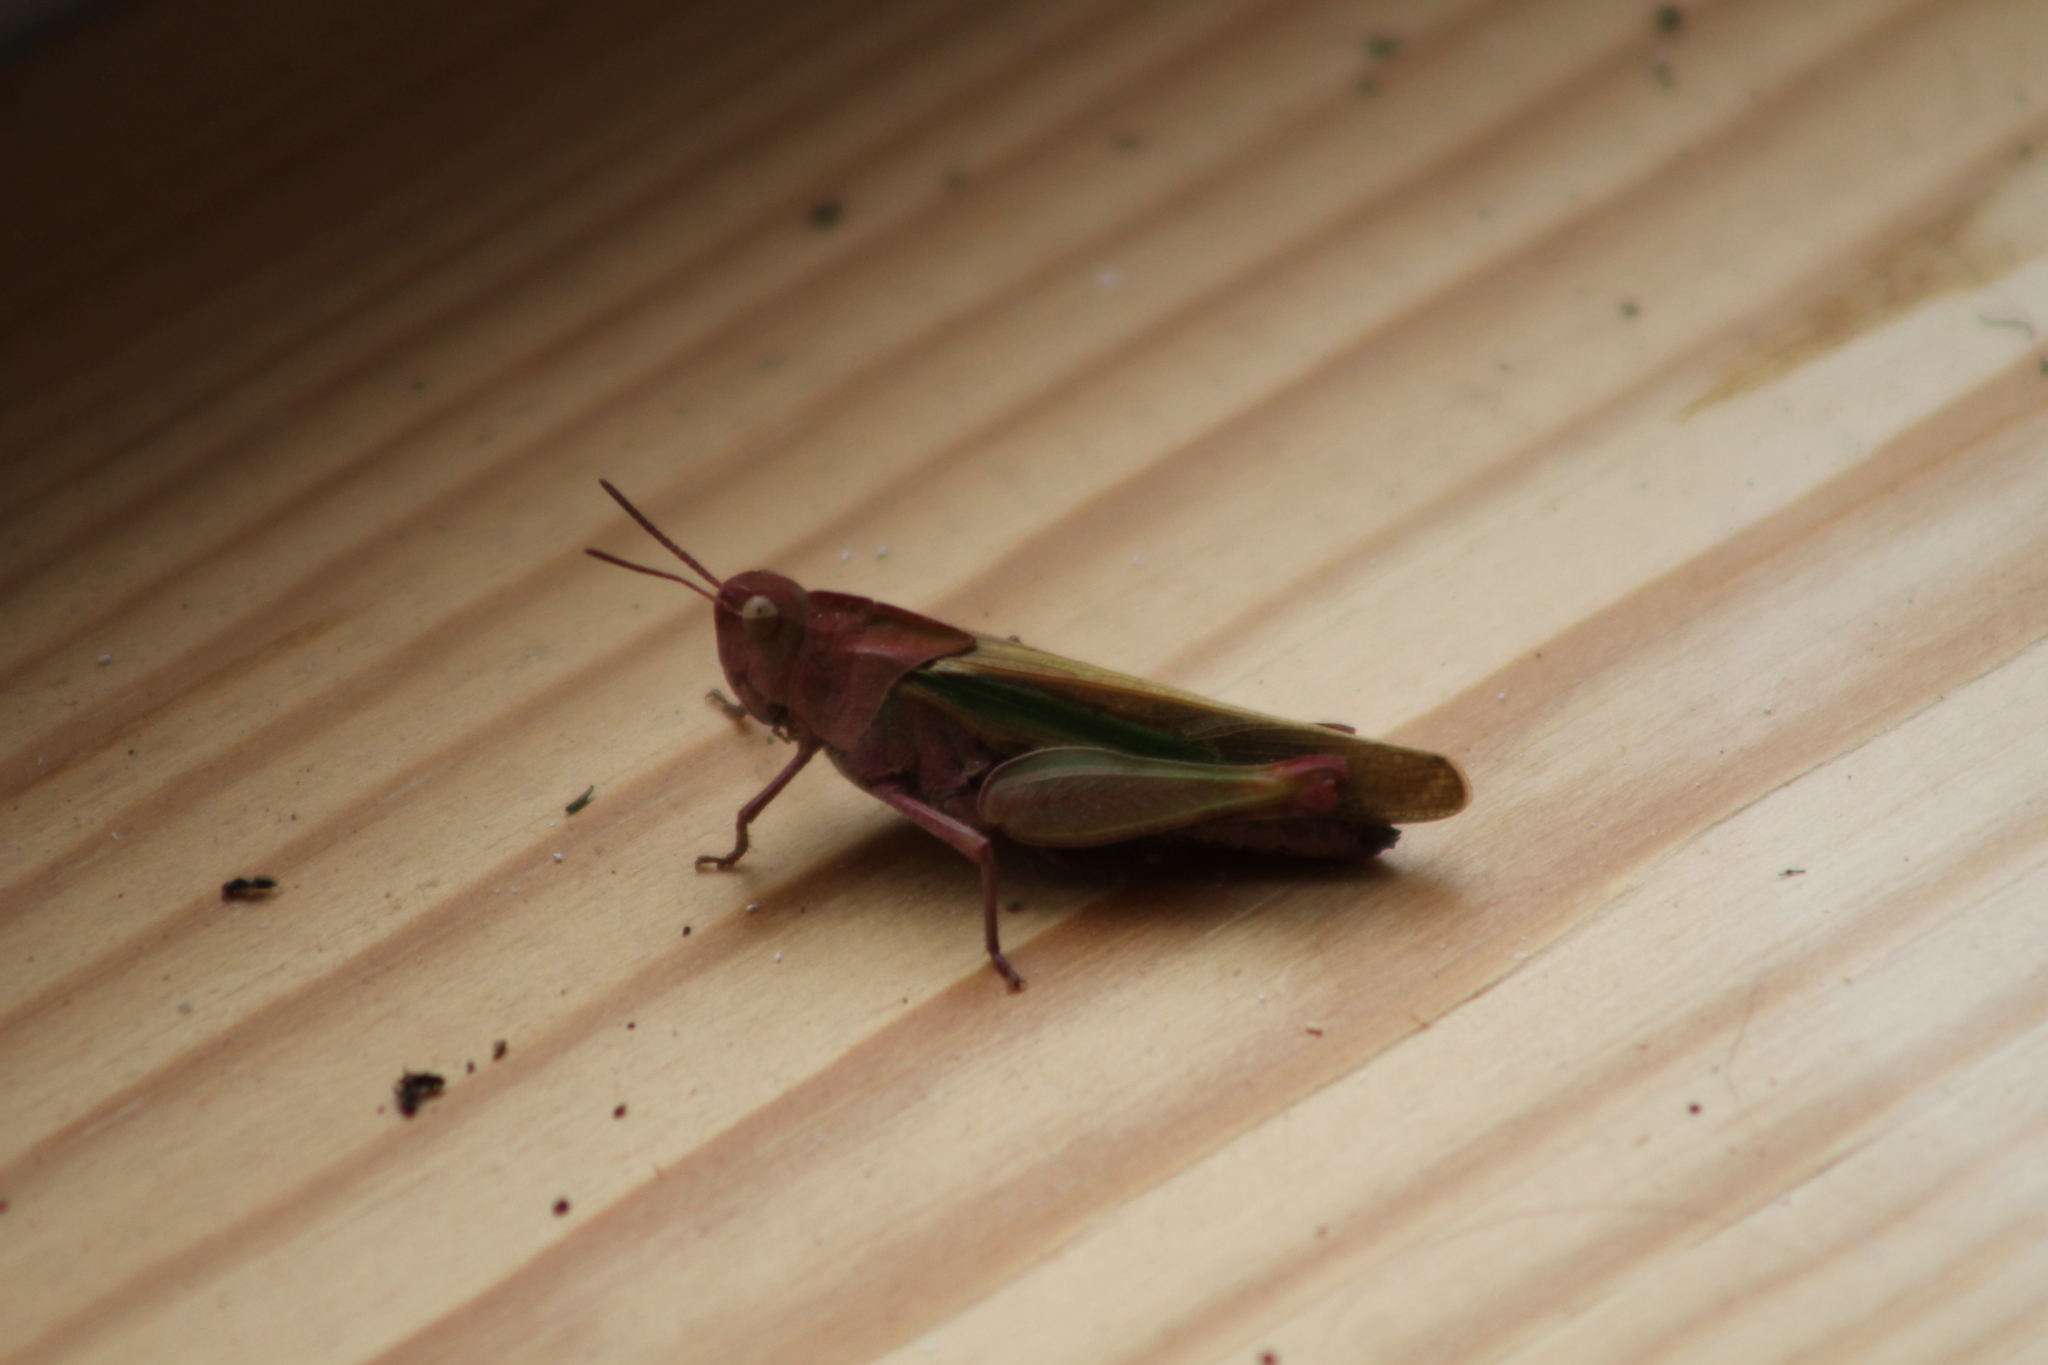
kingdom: Animalia
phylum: Arthropoda
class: Insecta
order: Orthoptera
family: Acrididae
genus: Chortophaga
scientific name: Chortophaga viridifasciata
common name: Green-striped grasshopper
